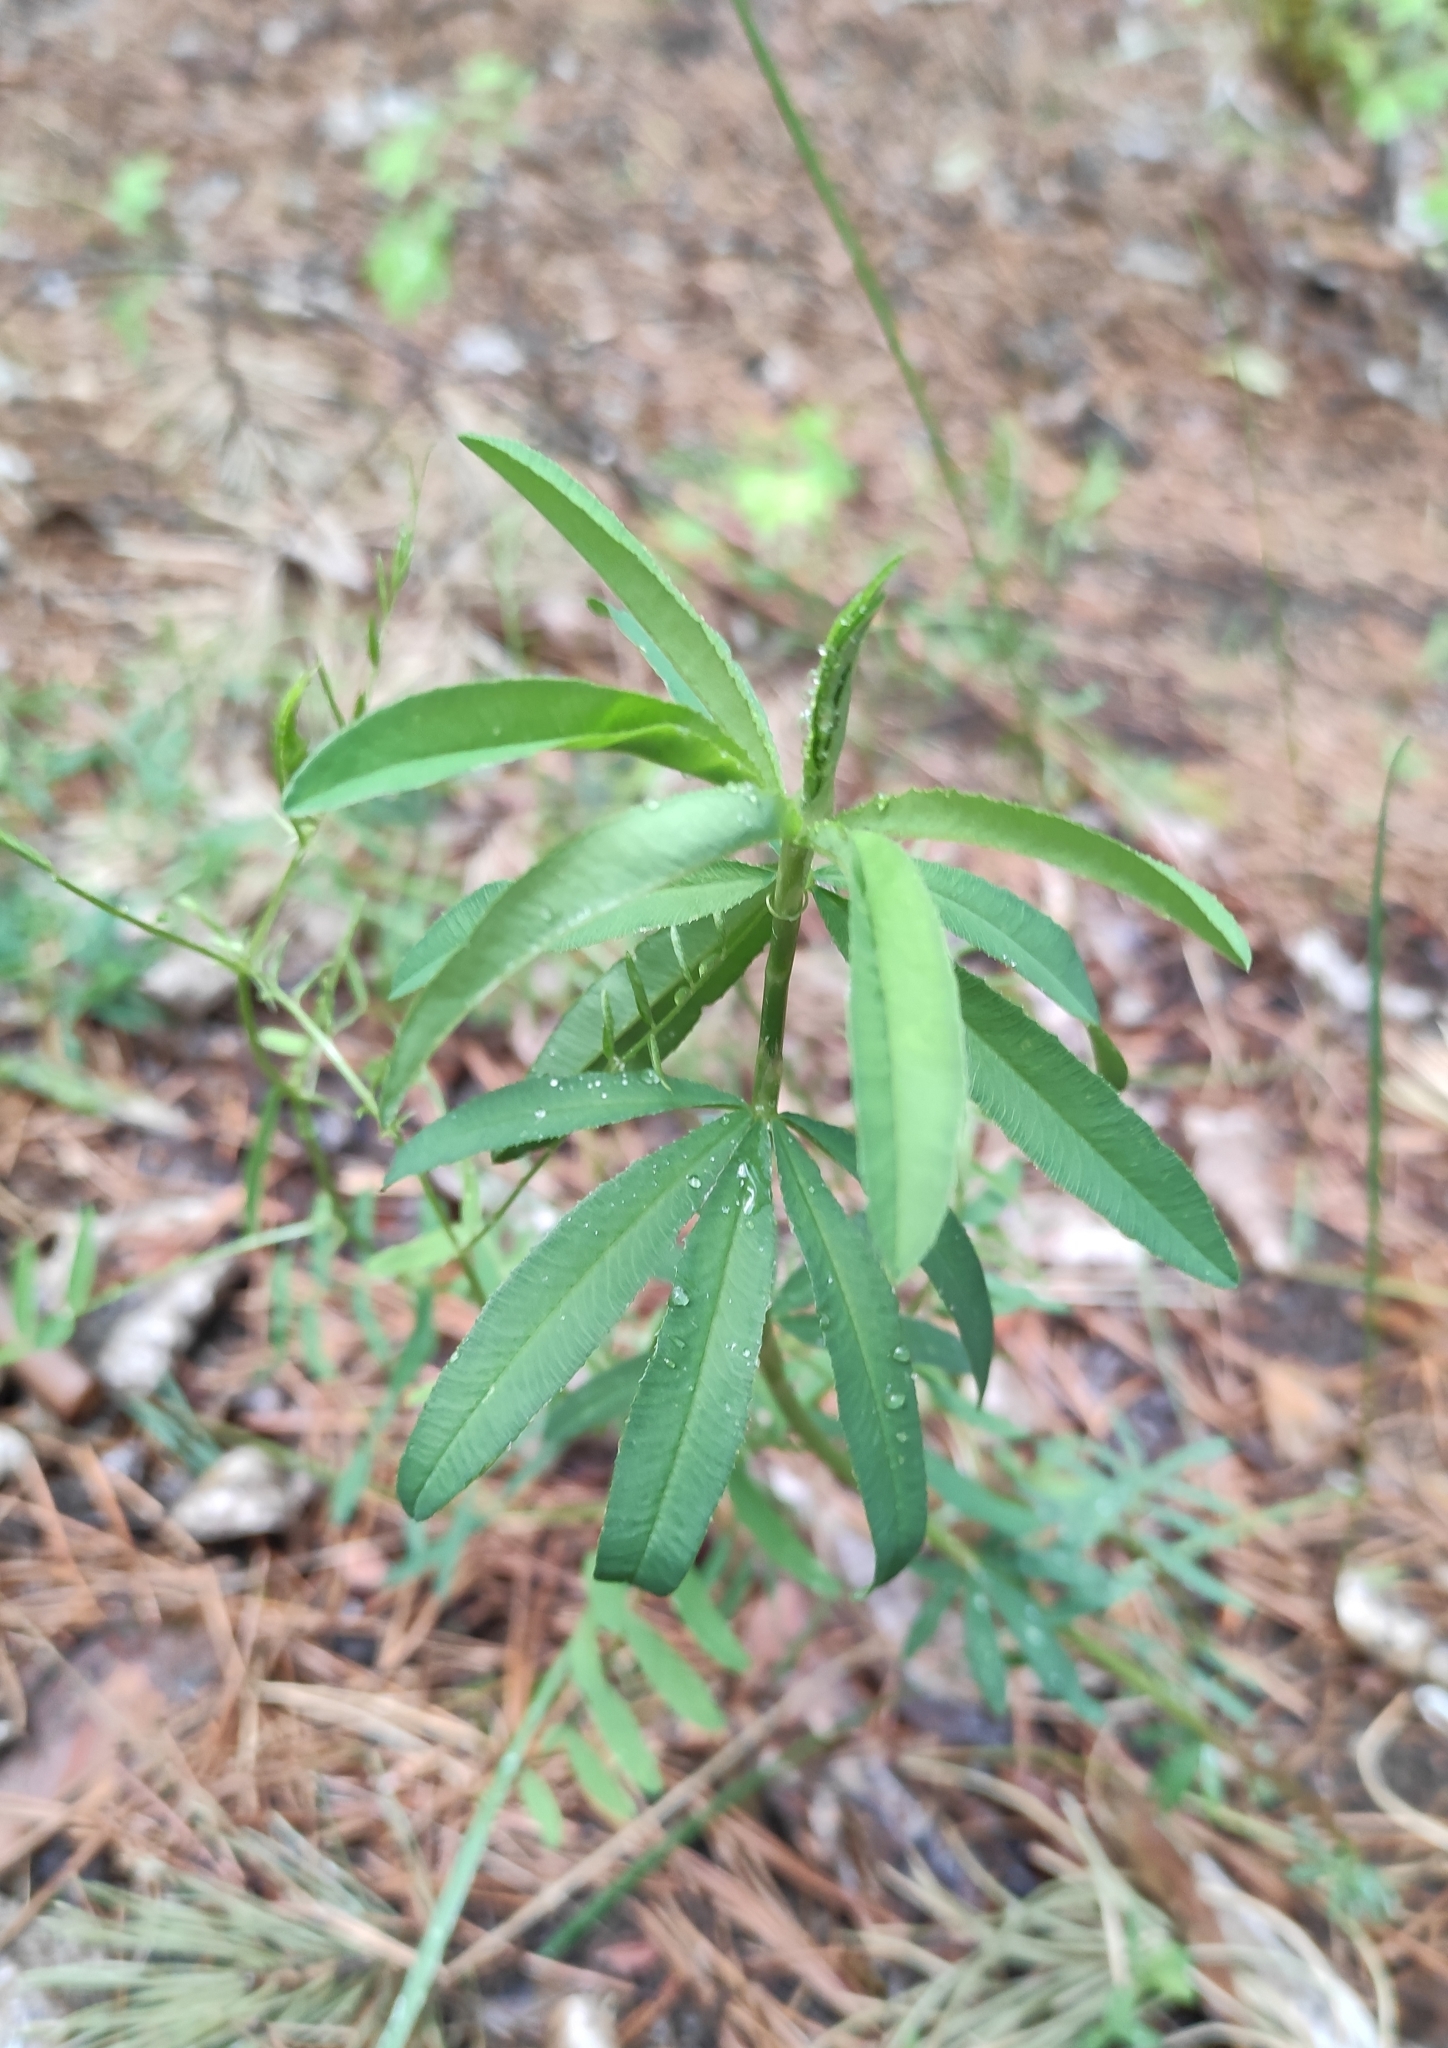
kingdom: Plantae
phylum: Tracheophyta
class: Magnoliopsida
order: Fabales
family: Fabaceae
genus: Trifolium
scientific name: Trifolium lupinaster
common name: Lupine clover
